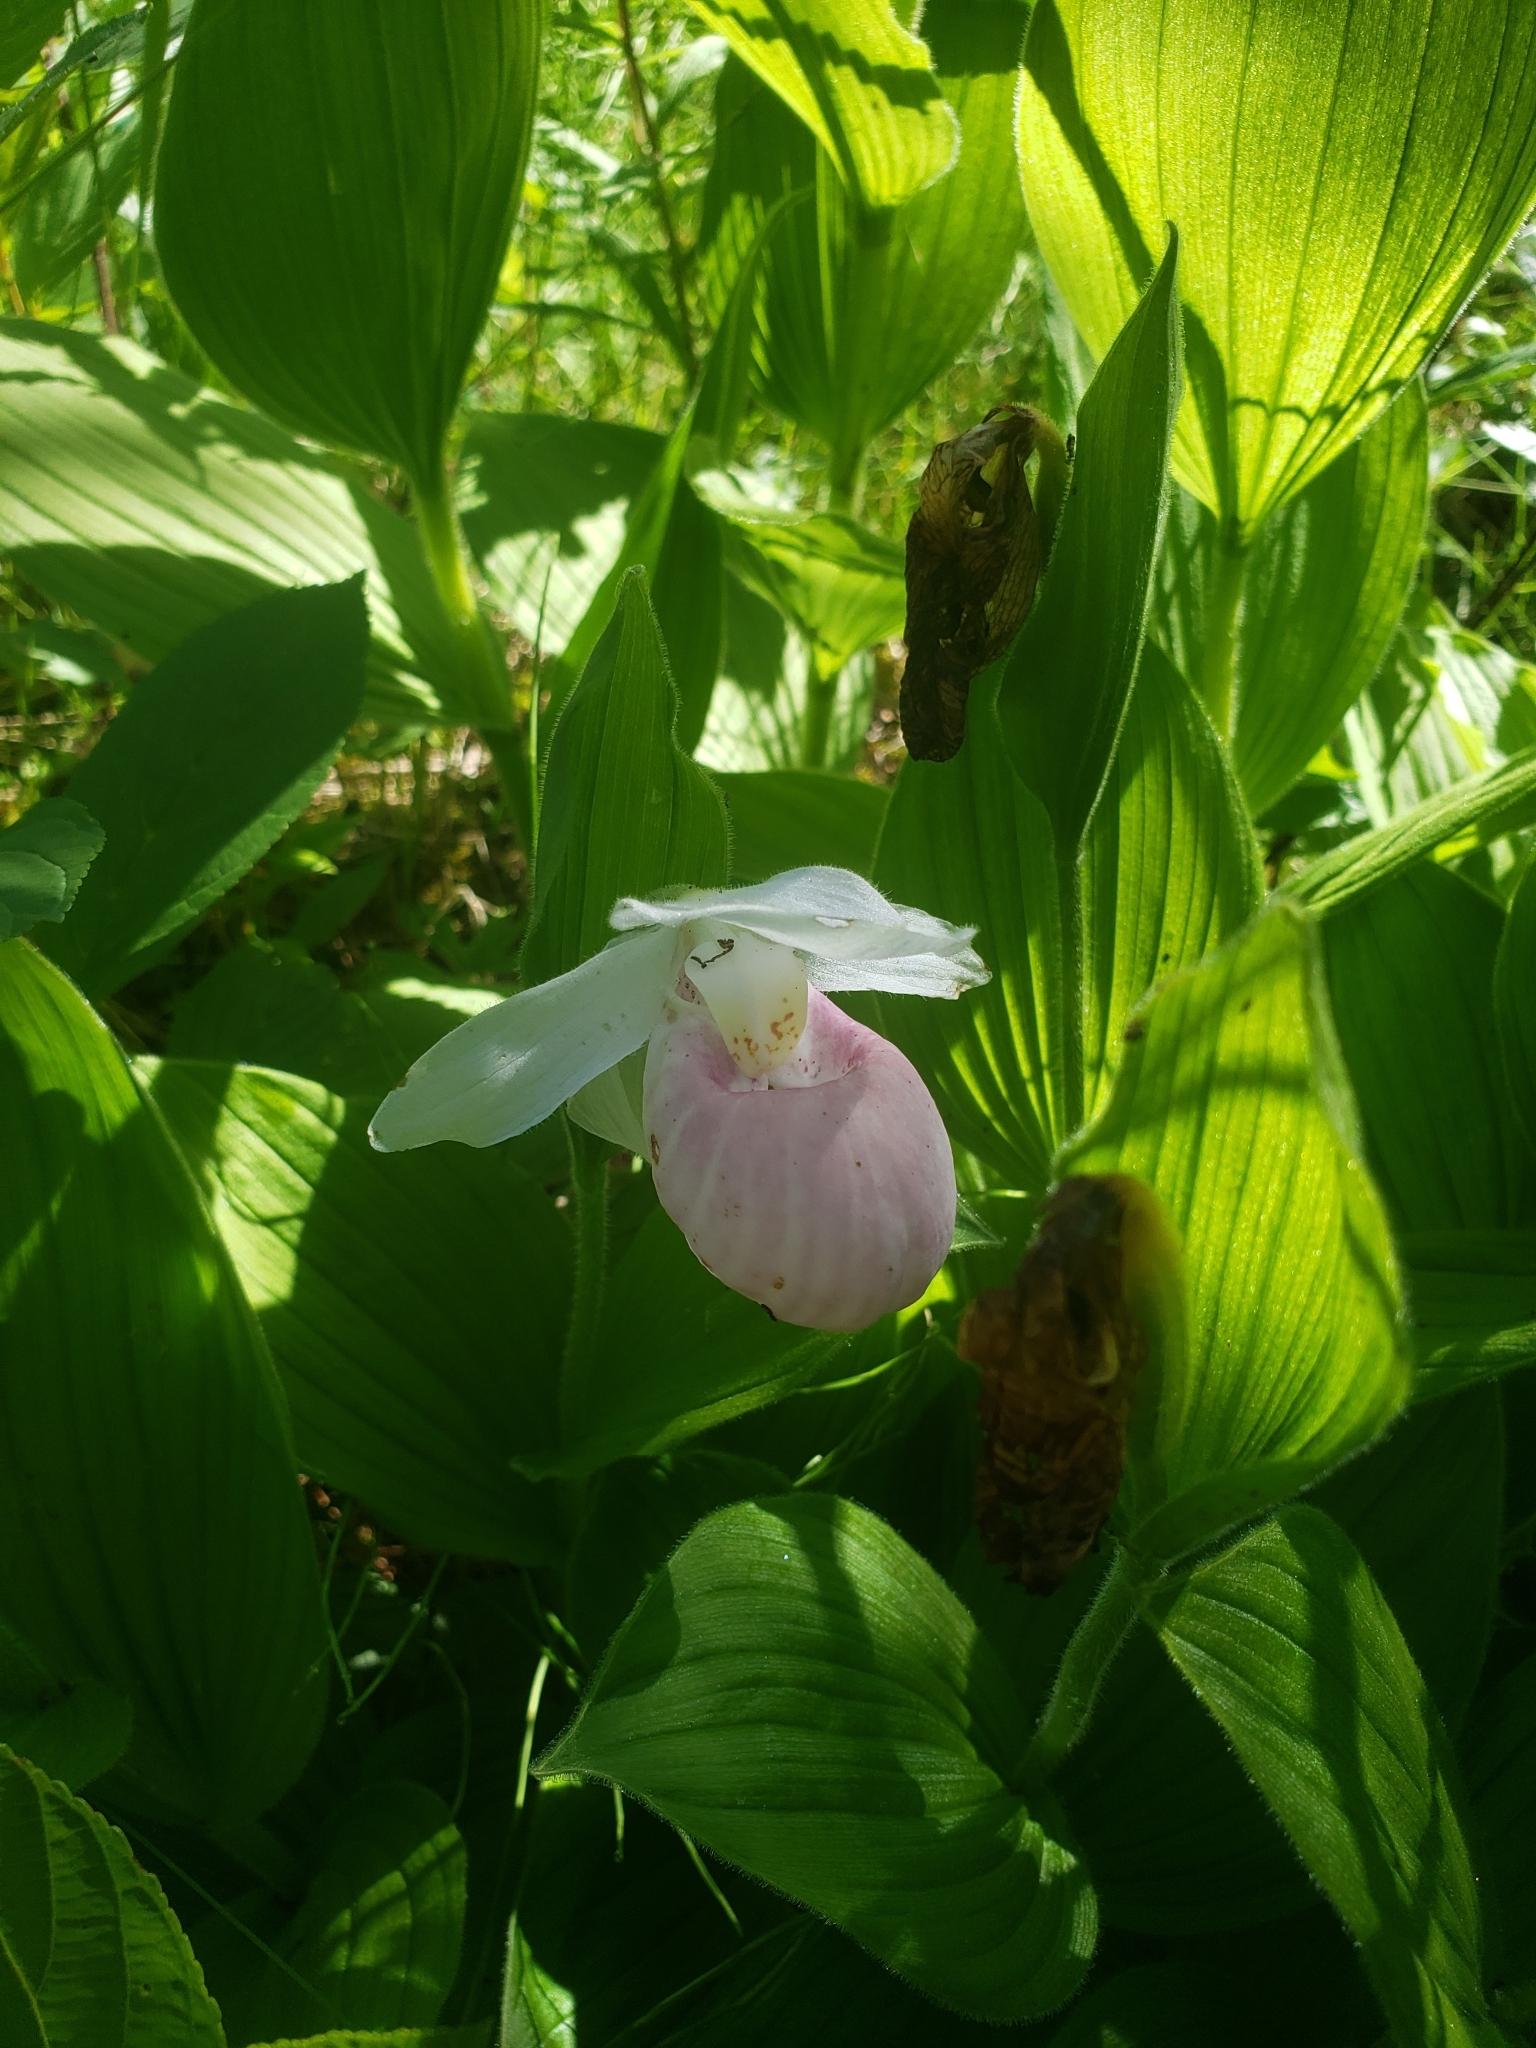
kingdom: Plantae
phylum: Tracheophyta
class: Liliopsida
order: Asparagales
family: Orchidaceae
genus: Cypripedium
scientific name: Cypripedium reginae
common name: Queen lady's-slipper
